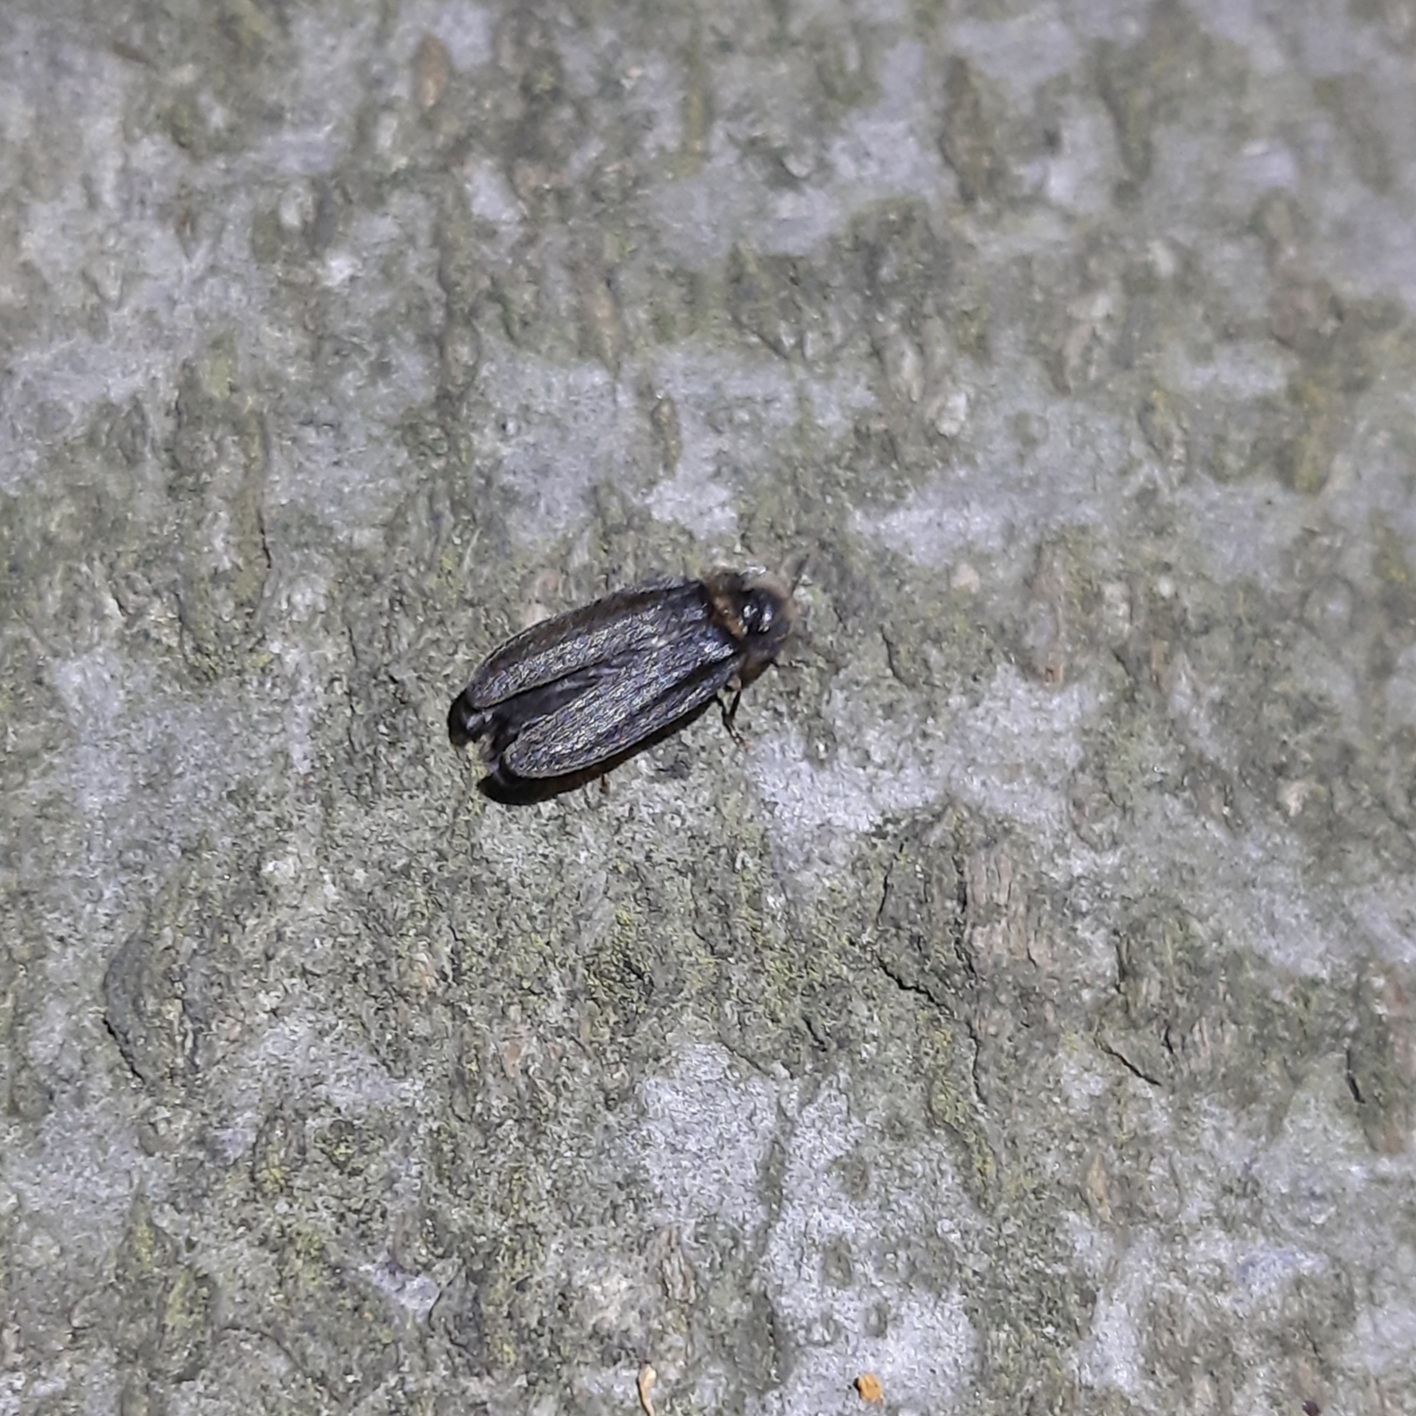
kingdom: Animalia
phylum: Arthropoda
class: Insecta
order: Coleoptera
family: Lampyridae
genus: Lamprohiza
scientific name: Lamprohiza splendidula
